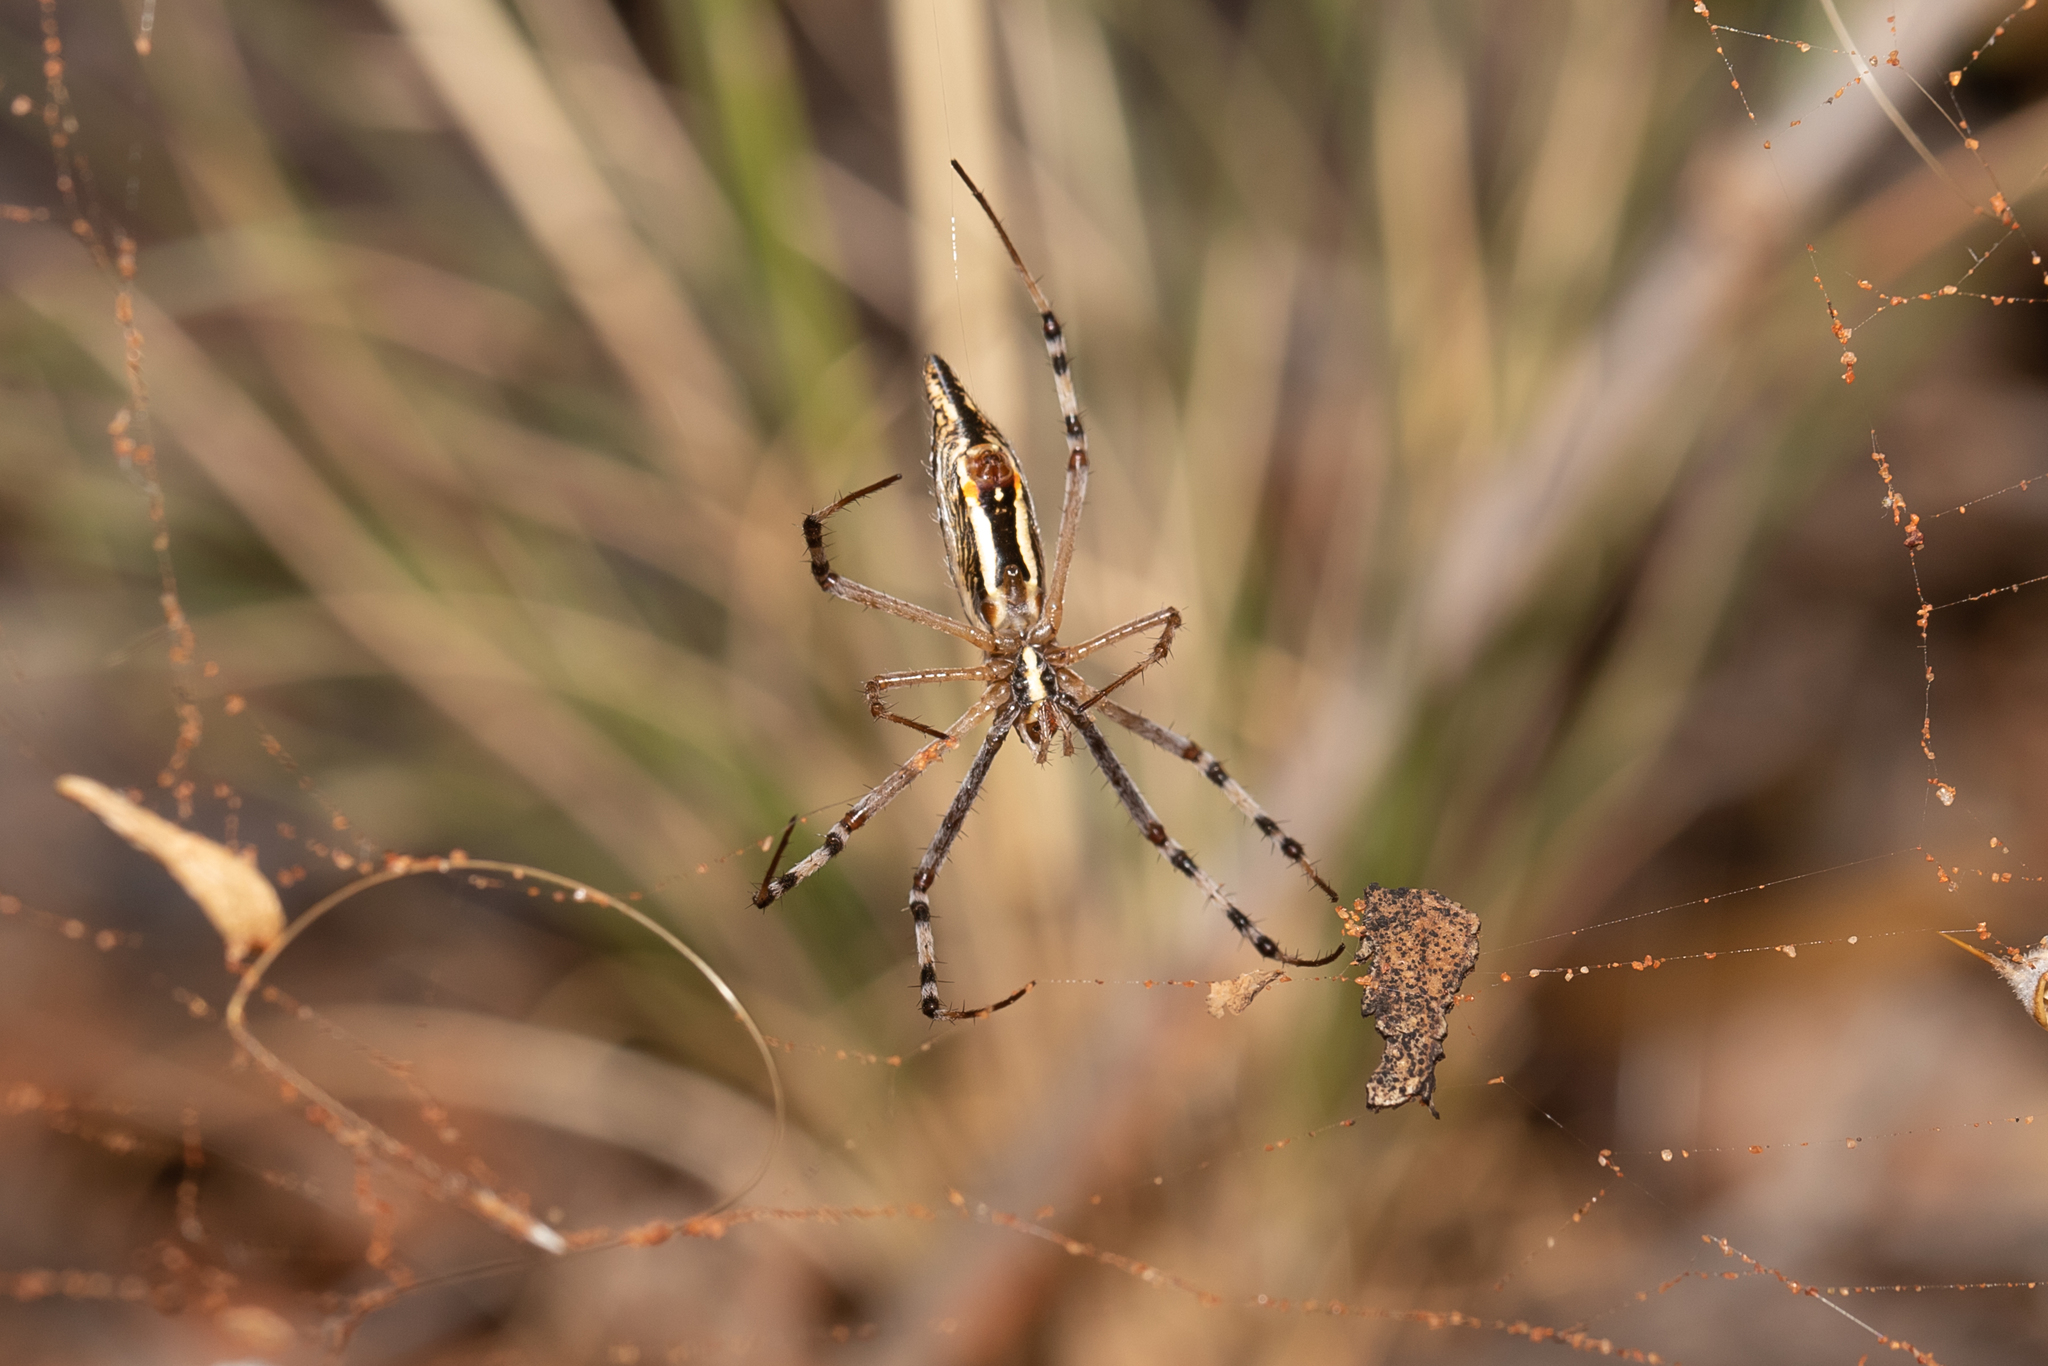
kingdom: Animalia
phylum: Arthropoda
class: Arachnida
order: Araneae
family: Araneidae
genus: Argiope
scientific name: Argiope protensa
